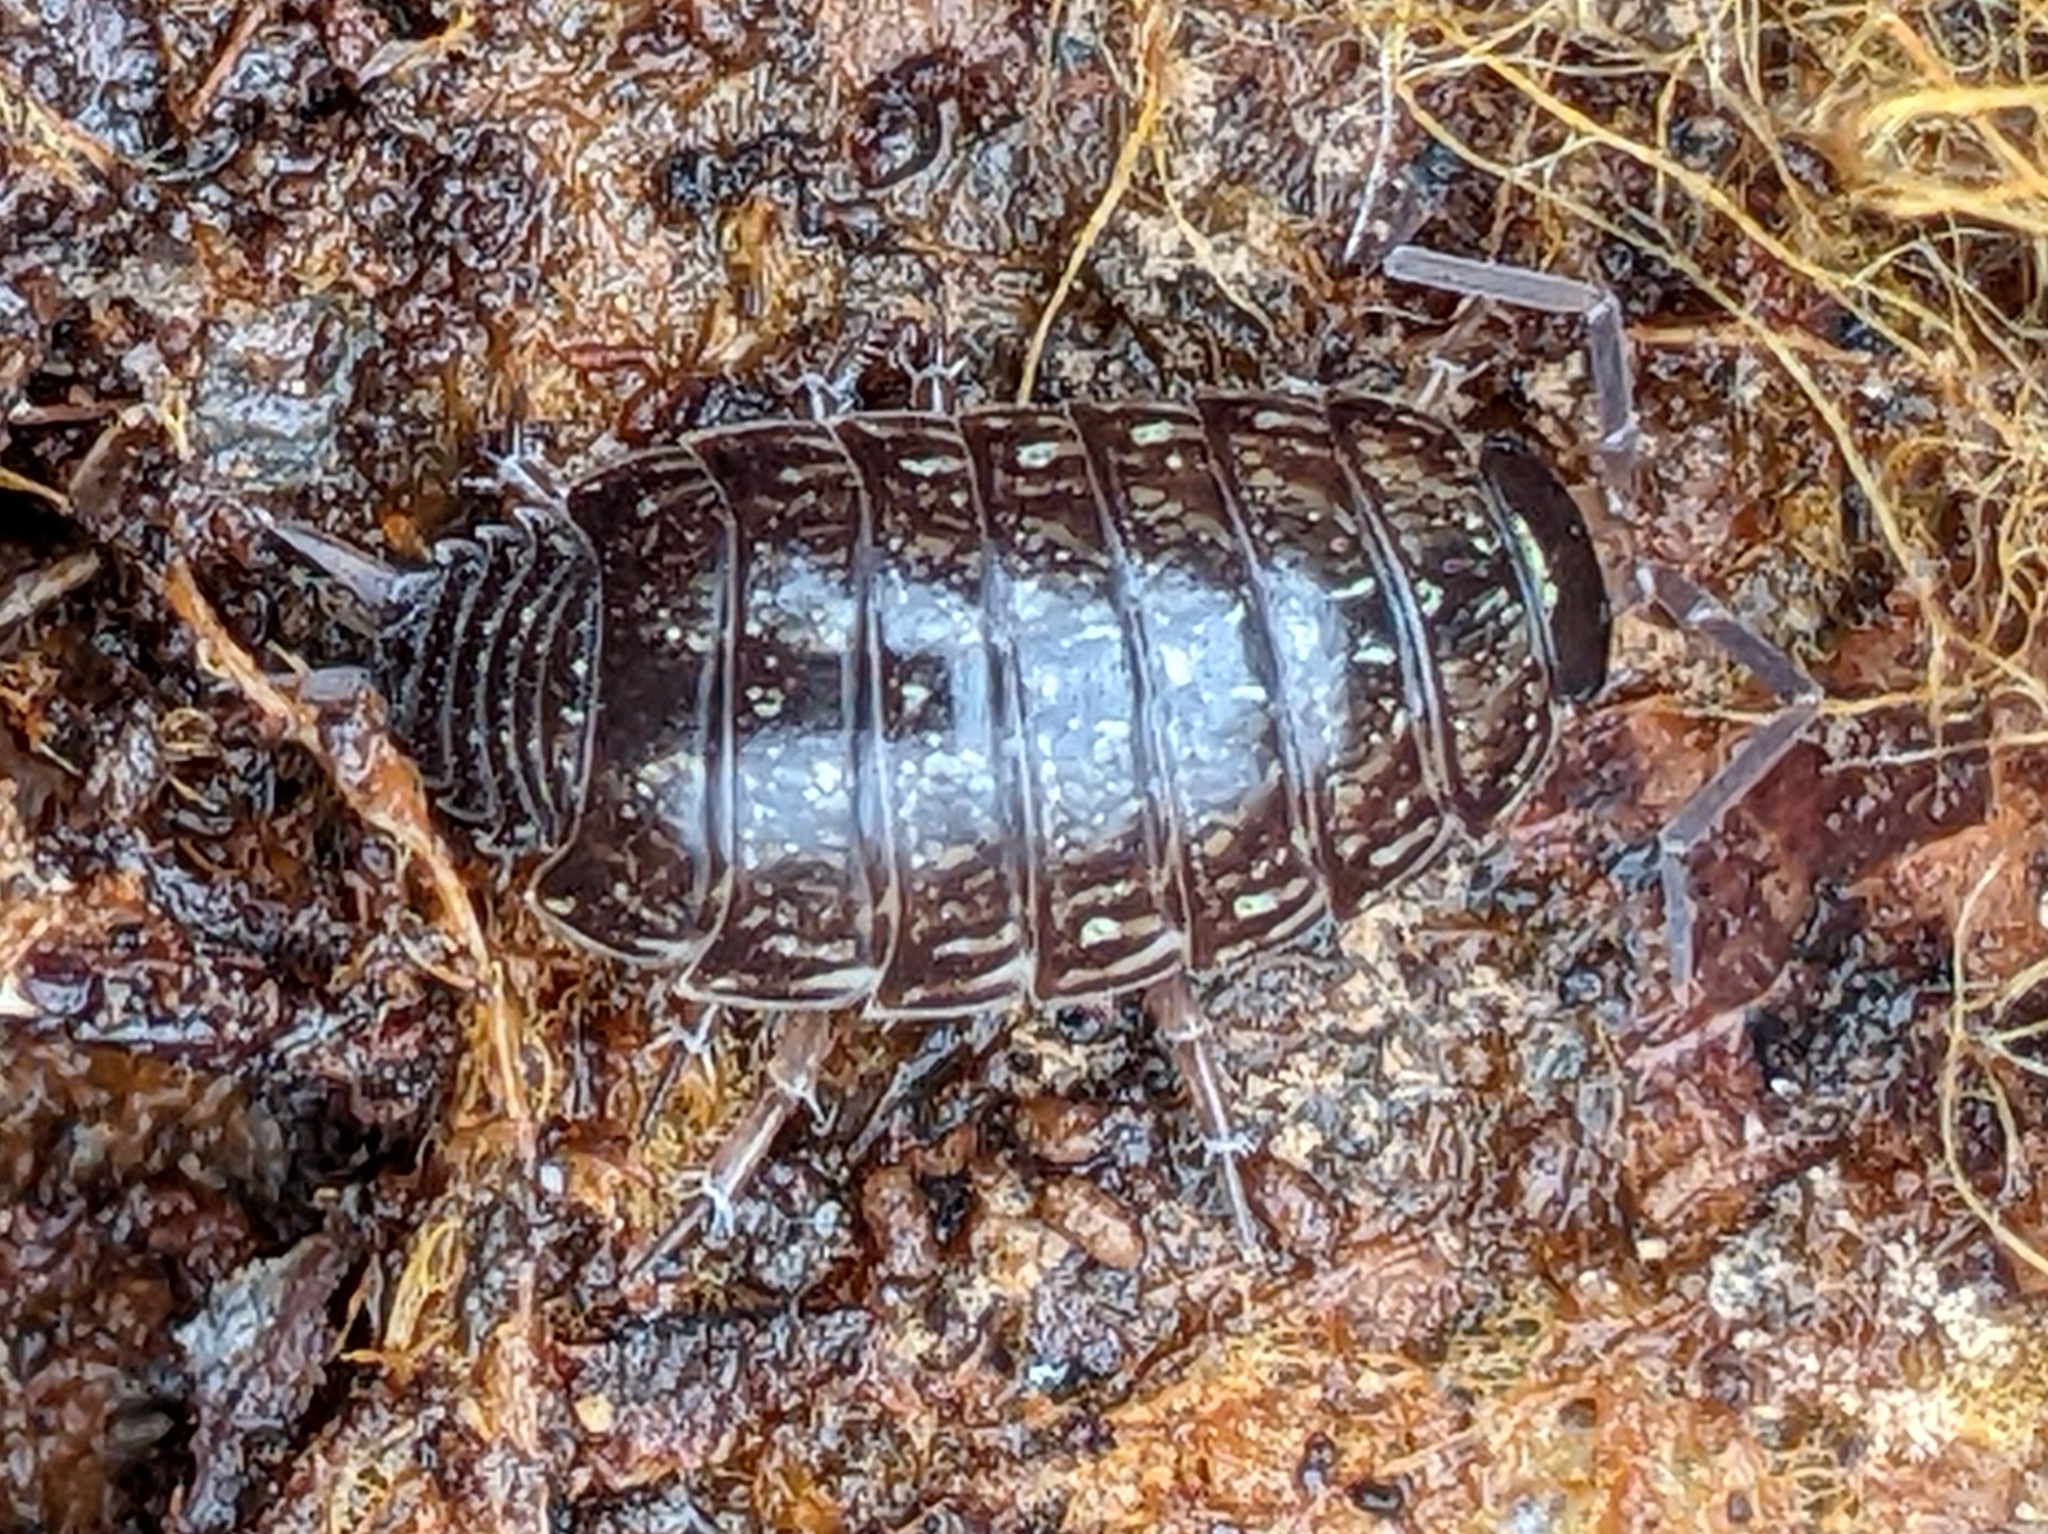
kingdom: Animalia
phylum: Arthropoda
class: Malacostraca
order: Isopoda
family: Philosciidae
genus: Philoscia
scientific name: Philoscia muscorum
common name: Common striped woodlouse
